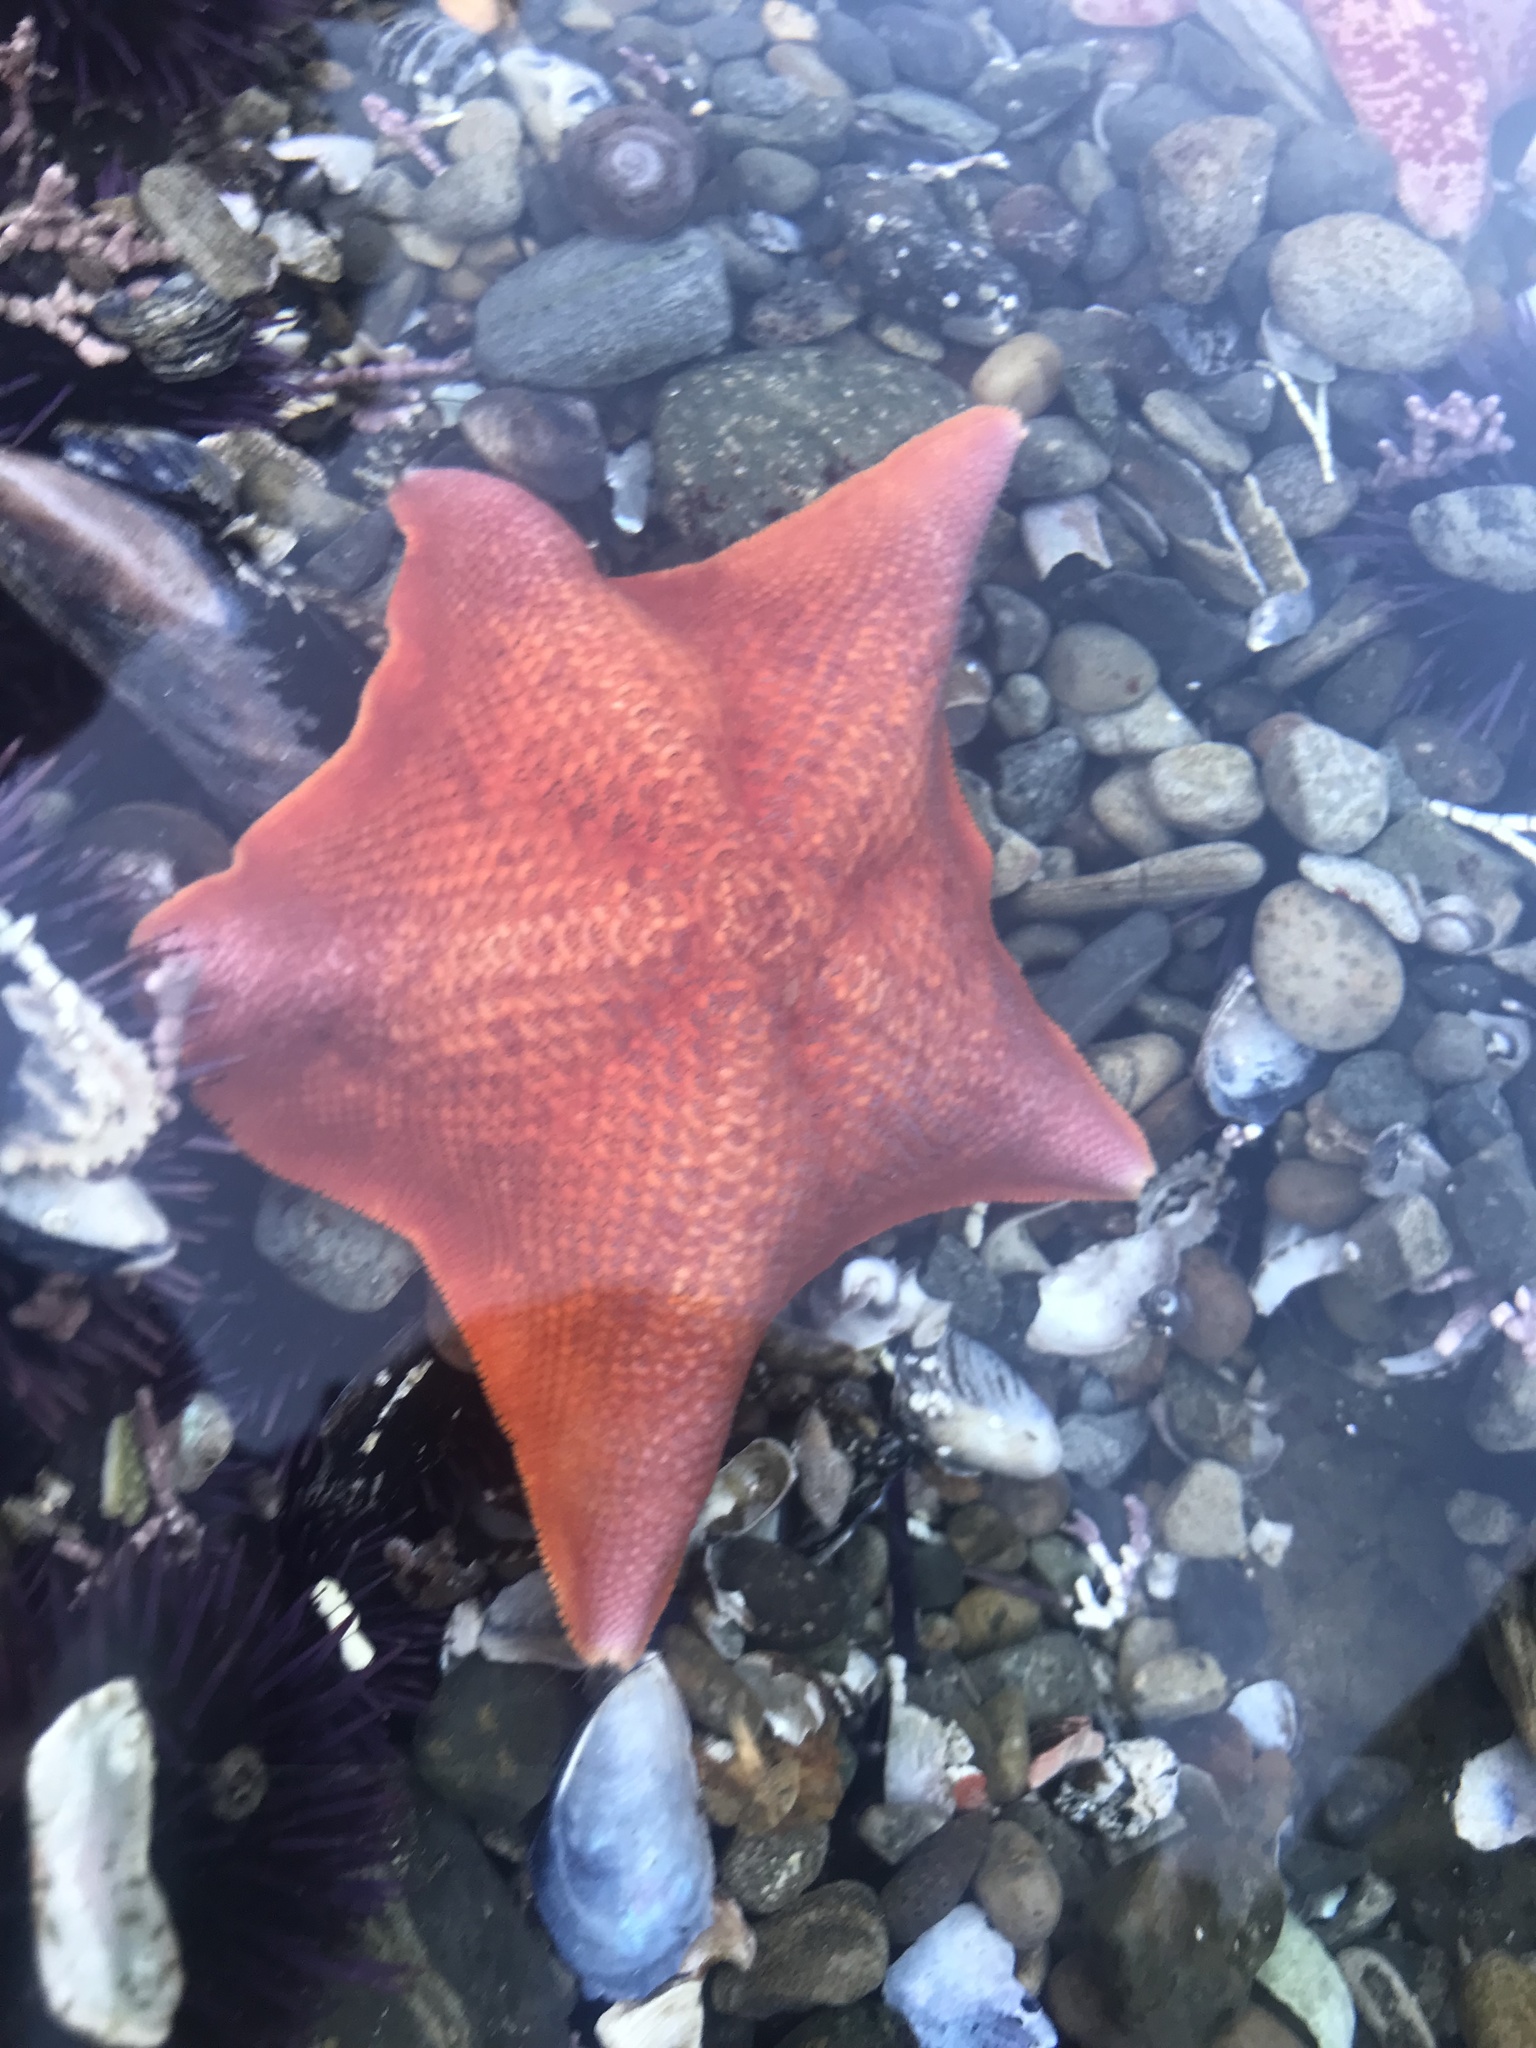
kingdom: Animalia
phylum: Echinodermata
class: Asteroidea
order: Valvatida
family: Asterinidae
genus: Patiria
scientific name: Patiria miniata
